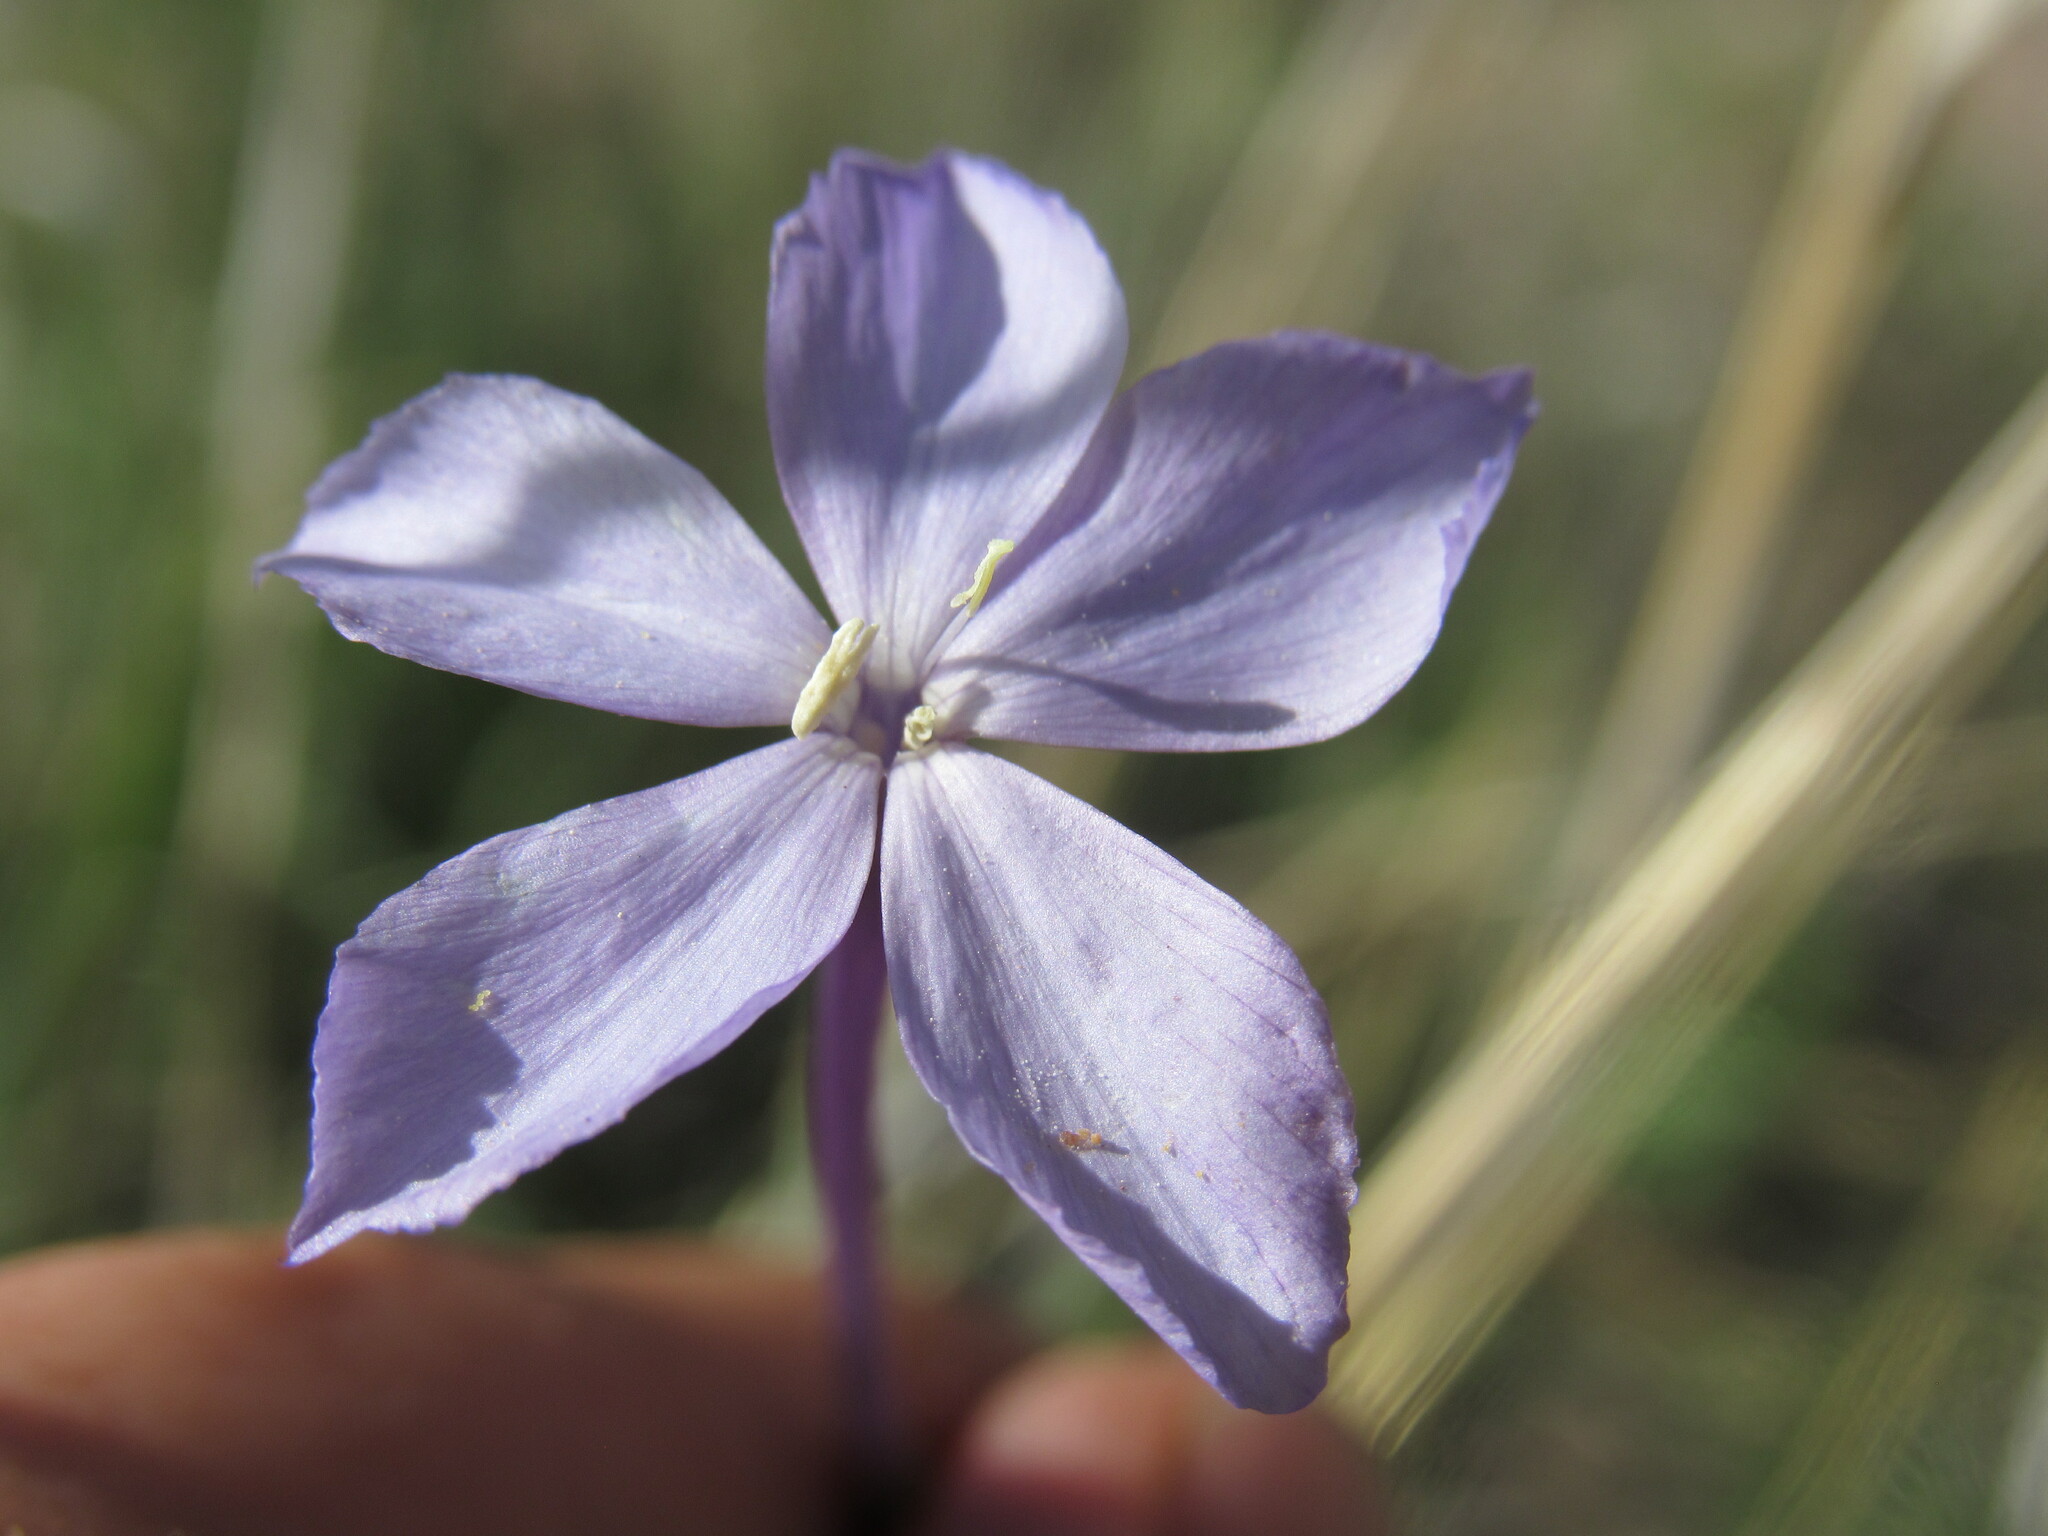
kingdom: Plantae
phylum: Tracheophyta
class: Magnoliopsida
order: Ericales
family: Polemoniaceae
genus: Ipomopsis
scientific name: Ipomopsis longiflora
